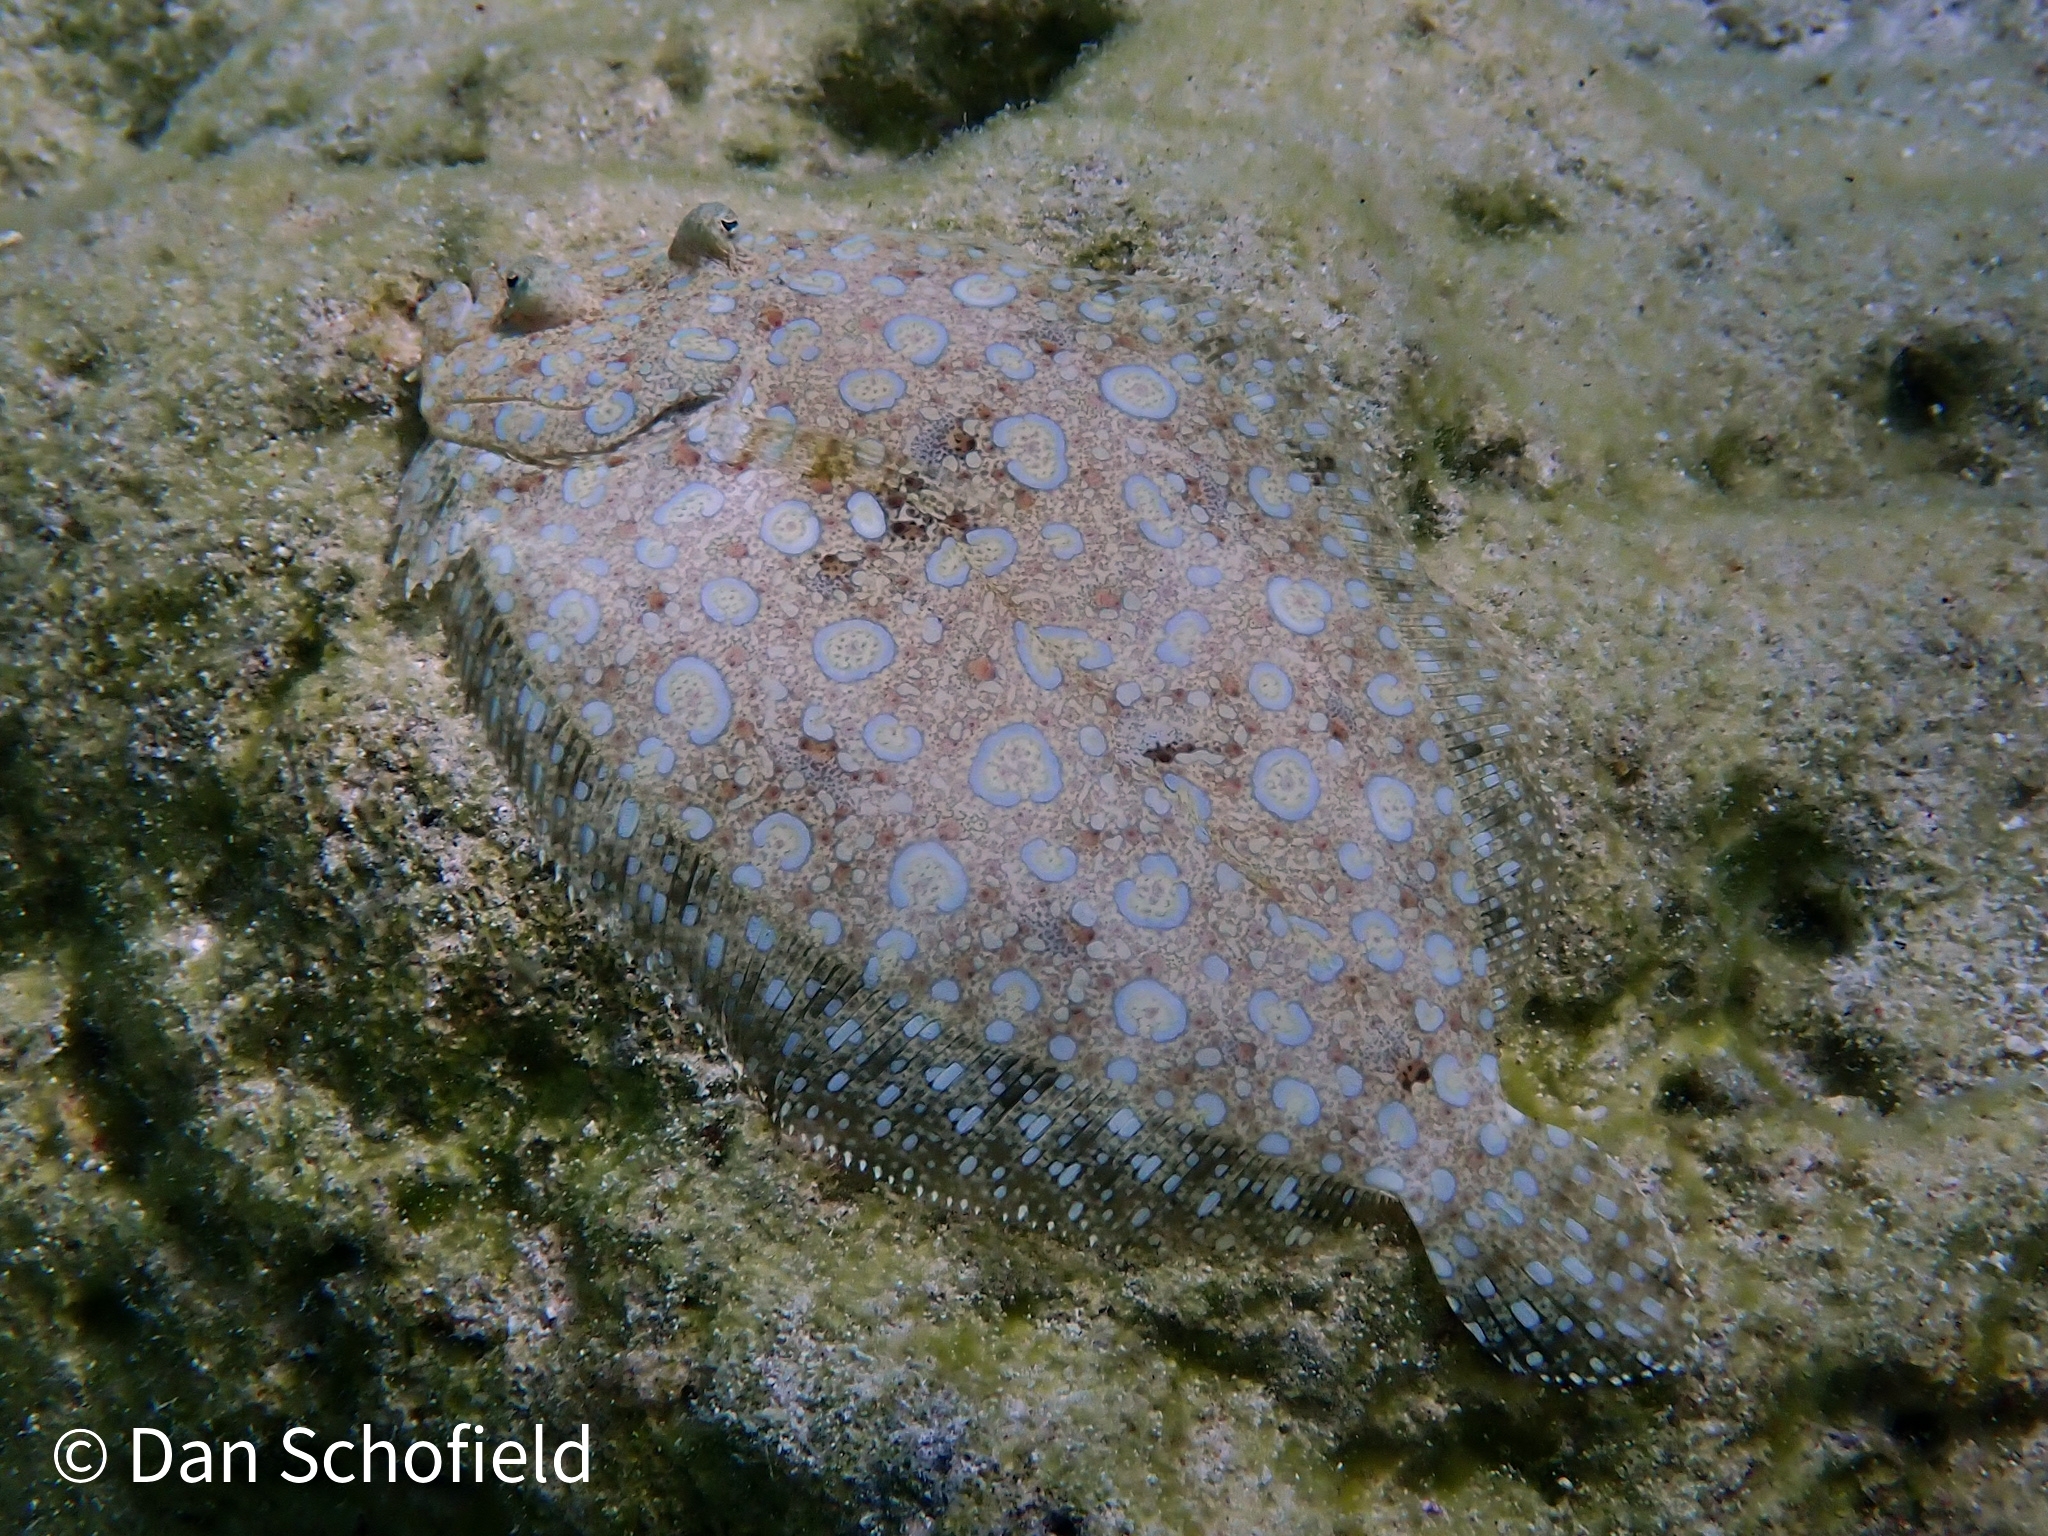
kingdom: Animalia
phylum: Chordata
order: Pleuronectiformes
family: Bothidae
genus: Bothus
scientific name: Bothus lunatus
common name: Peacock flounder
